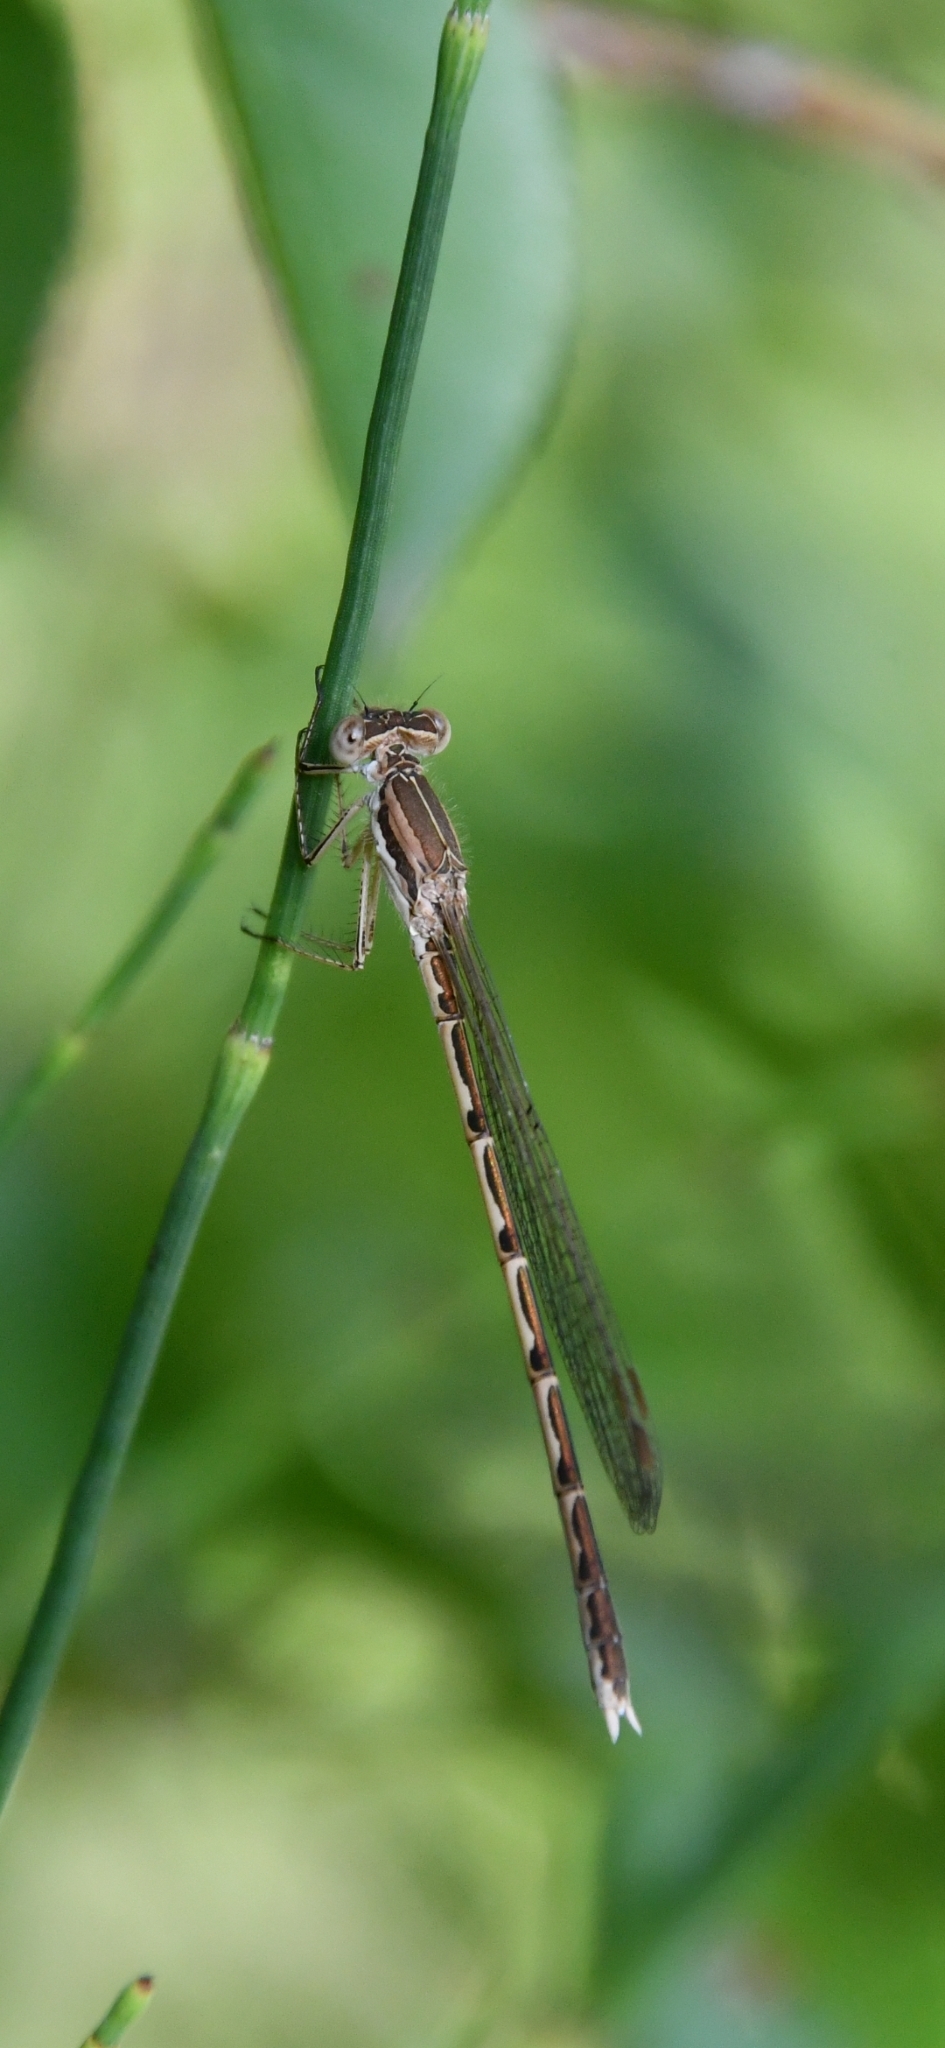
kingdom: Animalia
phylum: Arthropoda
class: Insecta
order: Odonata
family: Lestidae
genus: Sympecma
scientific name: Sympecma fusca
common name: Common winter damsel
